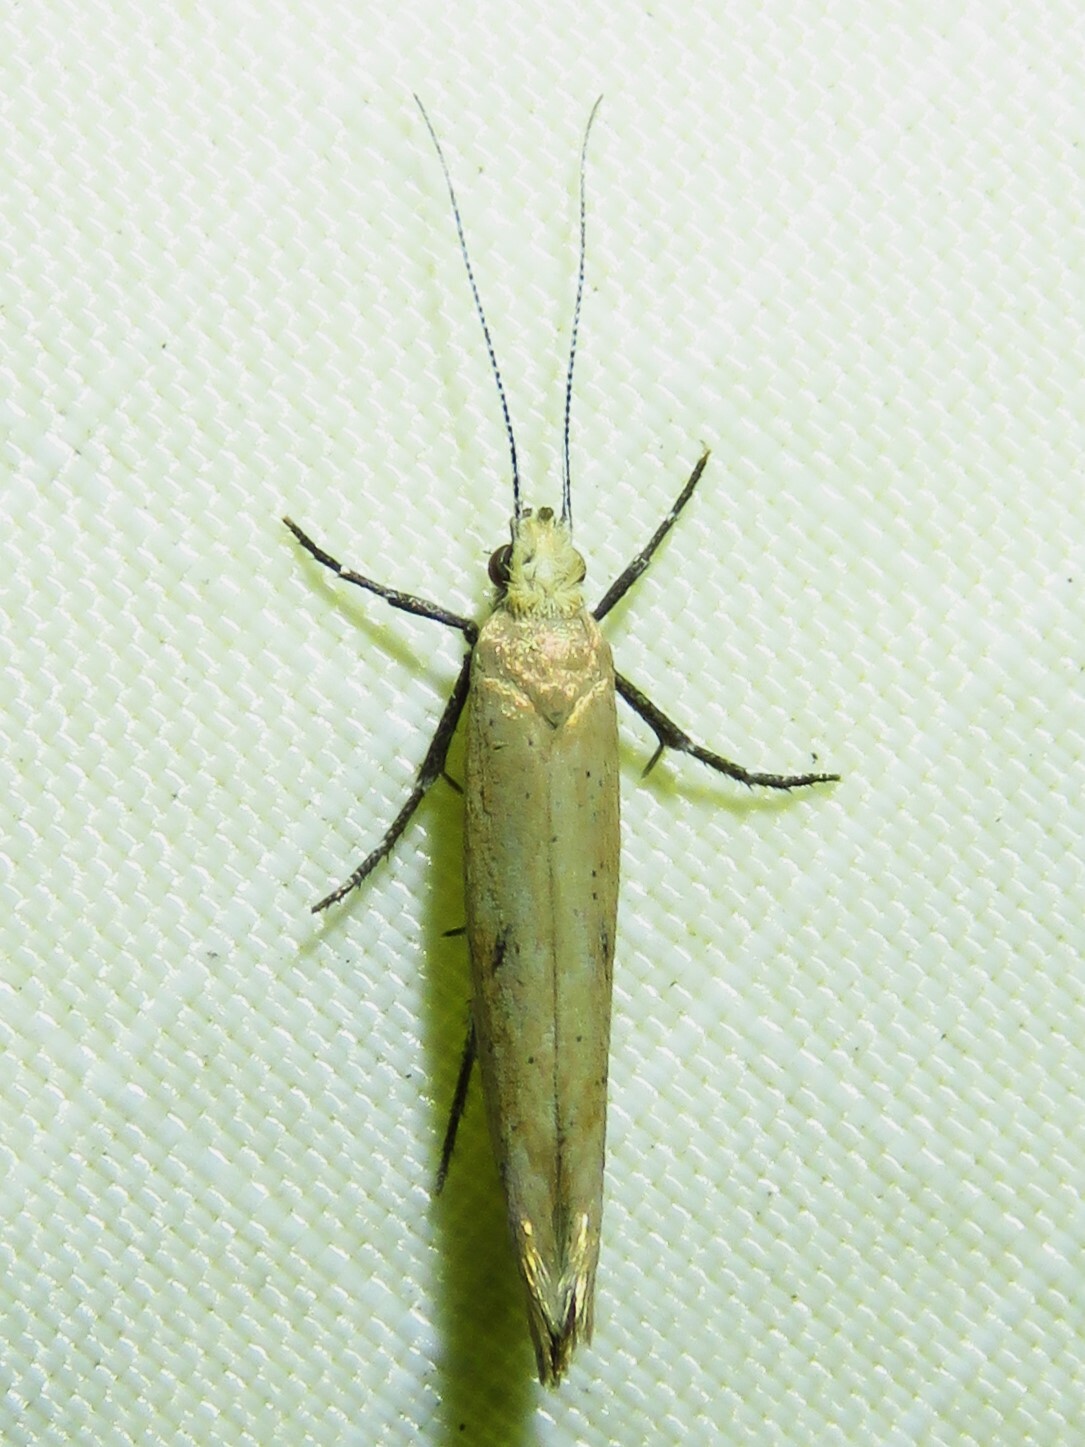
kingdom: Animalia
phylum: Arthropoda
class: Insecta
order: Lepidoptera
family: Ypsolophidae
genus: Ypsolopha
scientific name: Ypsolopha
